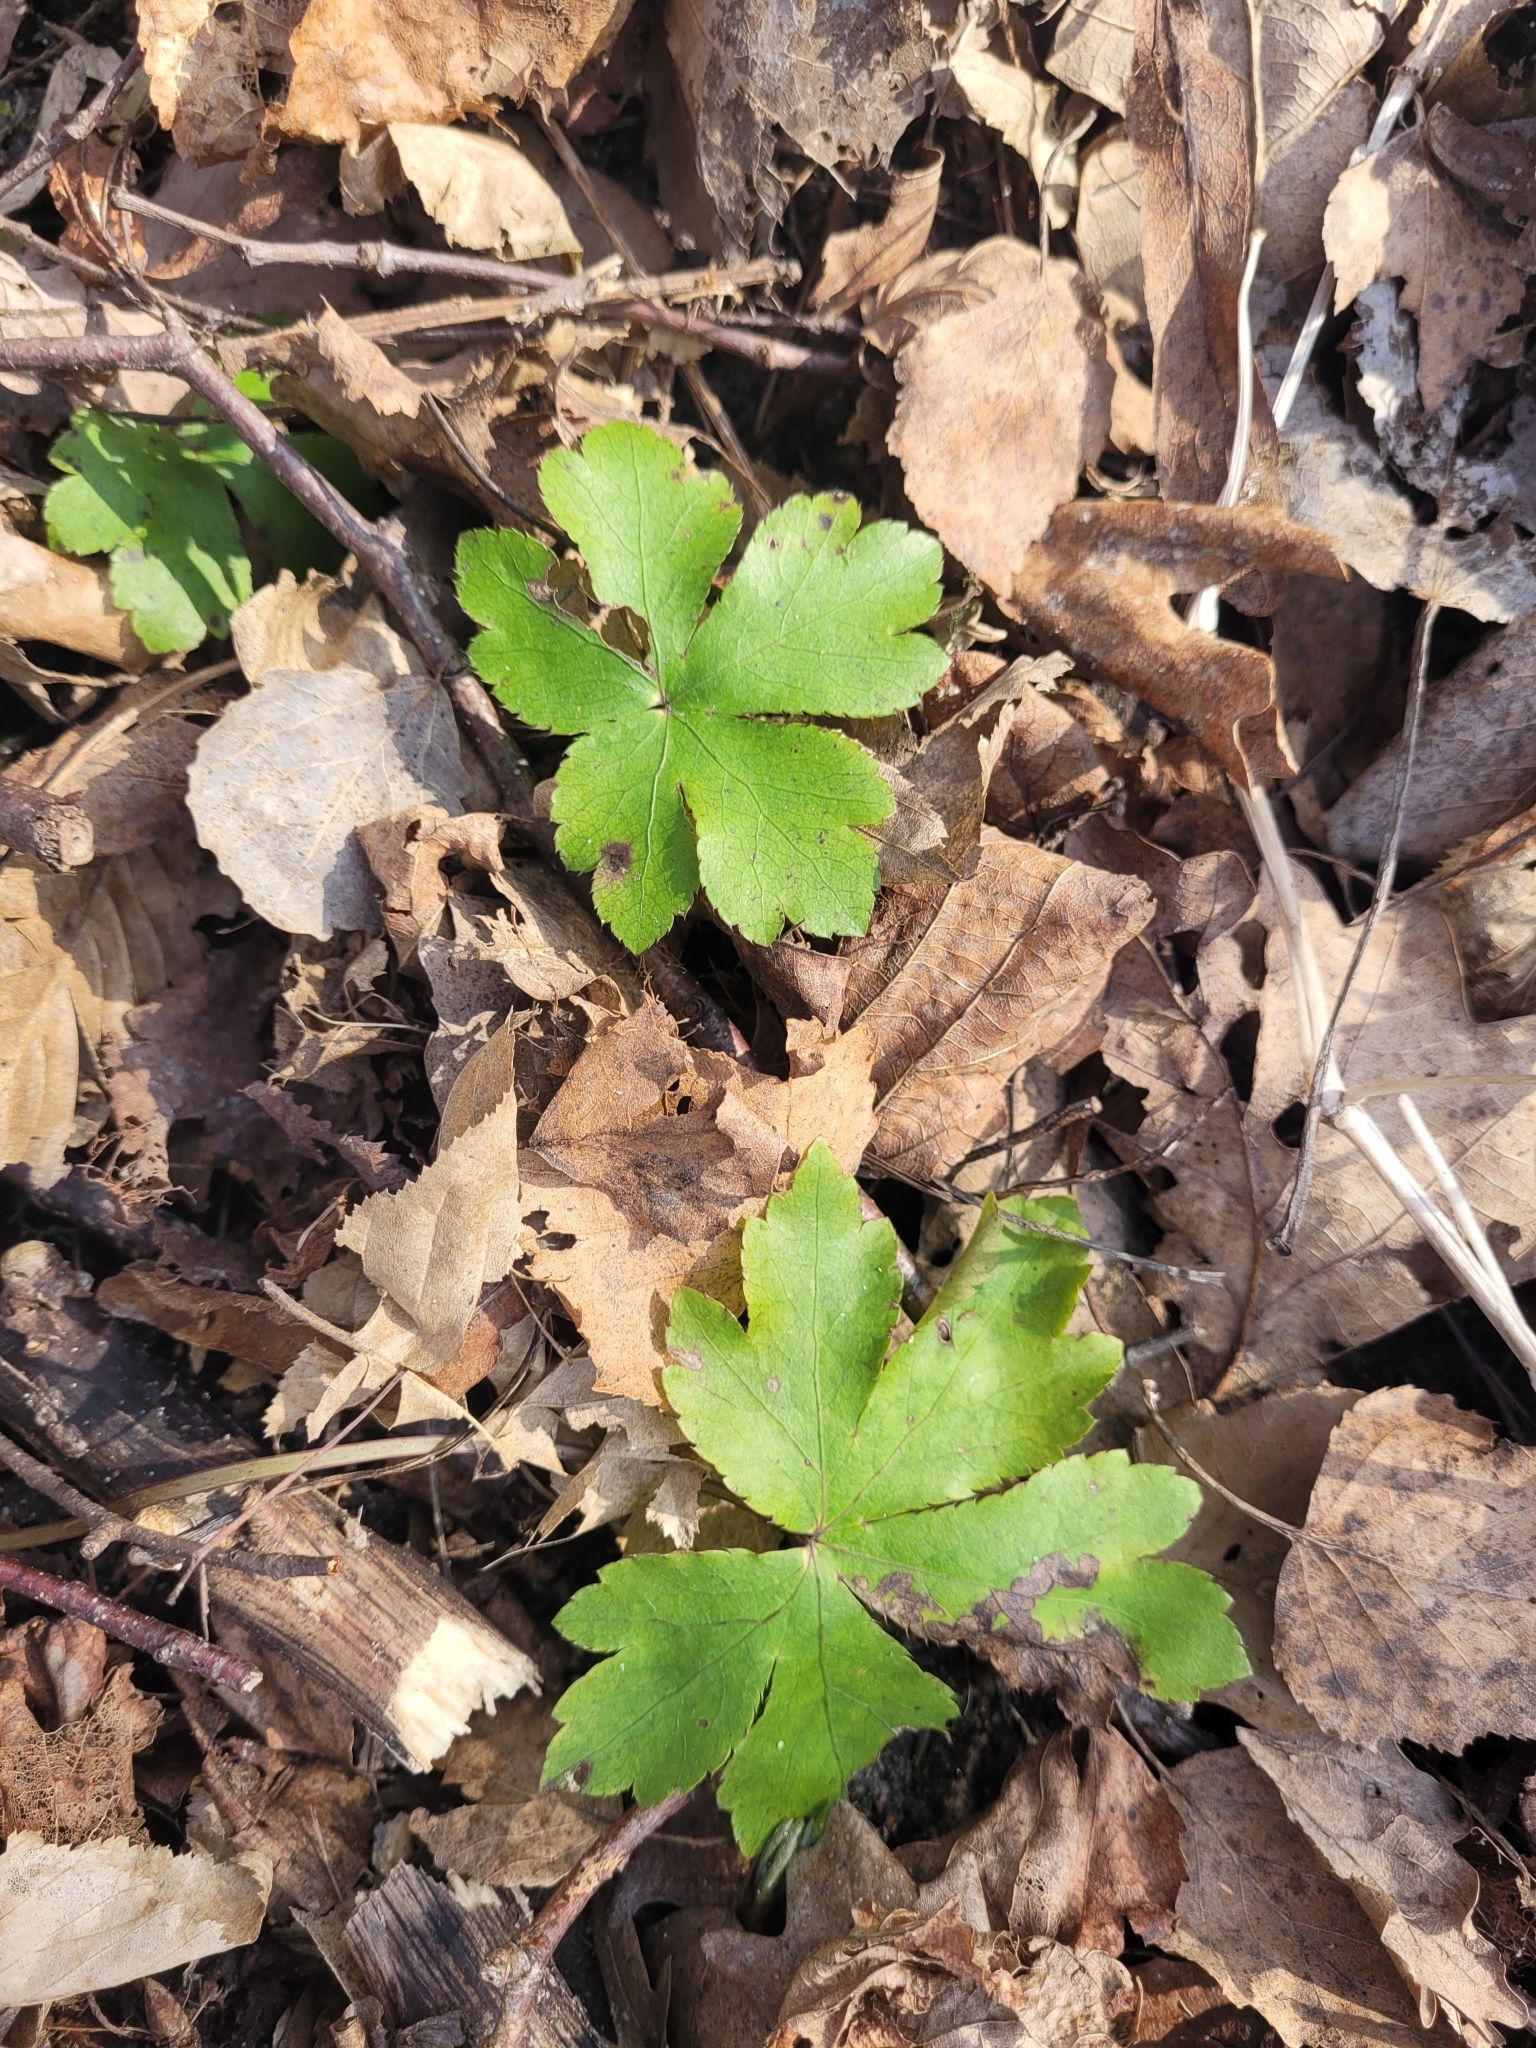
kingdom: Plantae
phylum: Tracheophyta
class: Magnoliopsida
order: Apiales
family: Apiaceae
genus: Sanicula
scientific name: Sanicula europaea
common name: Sanicle
